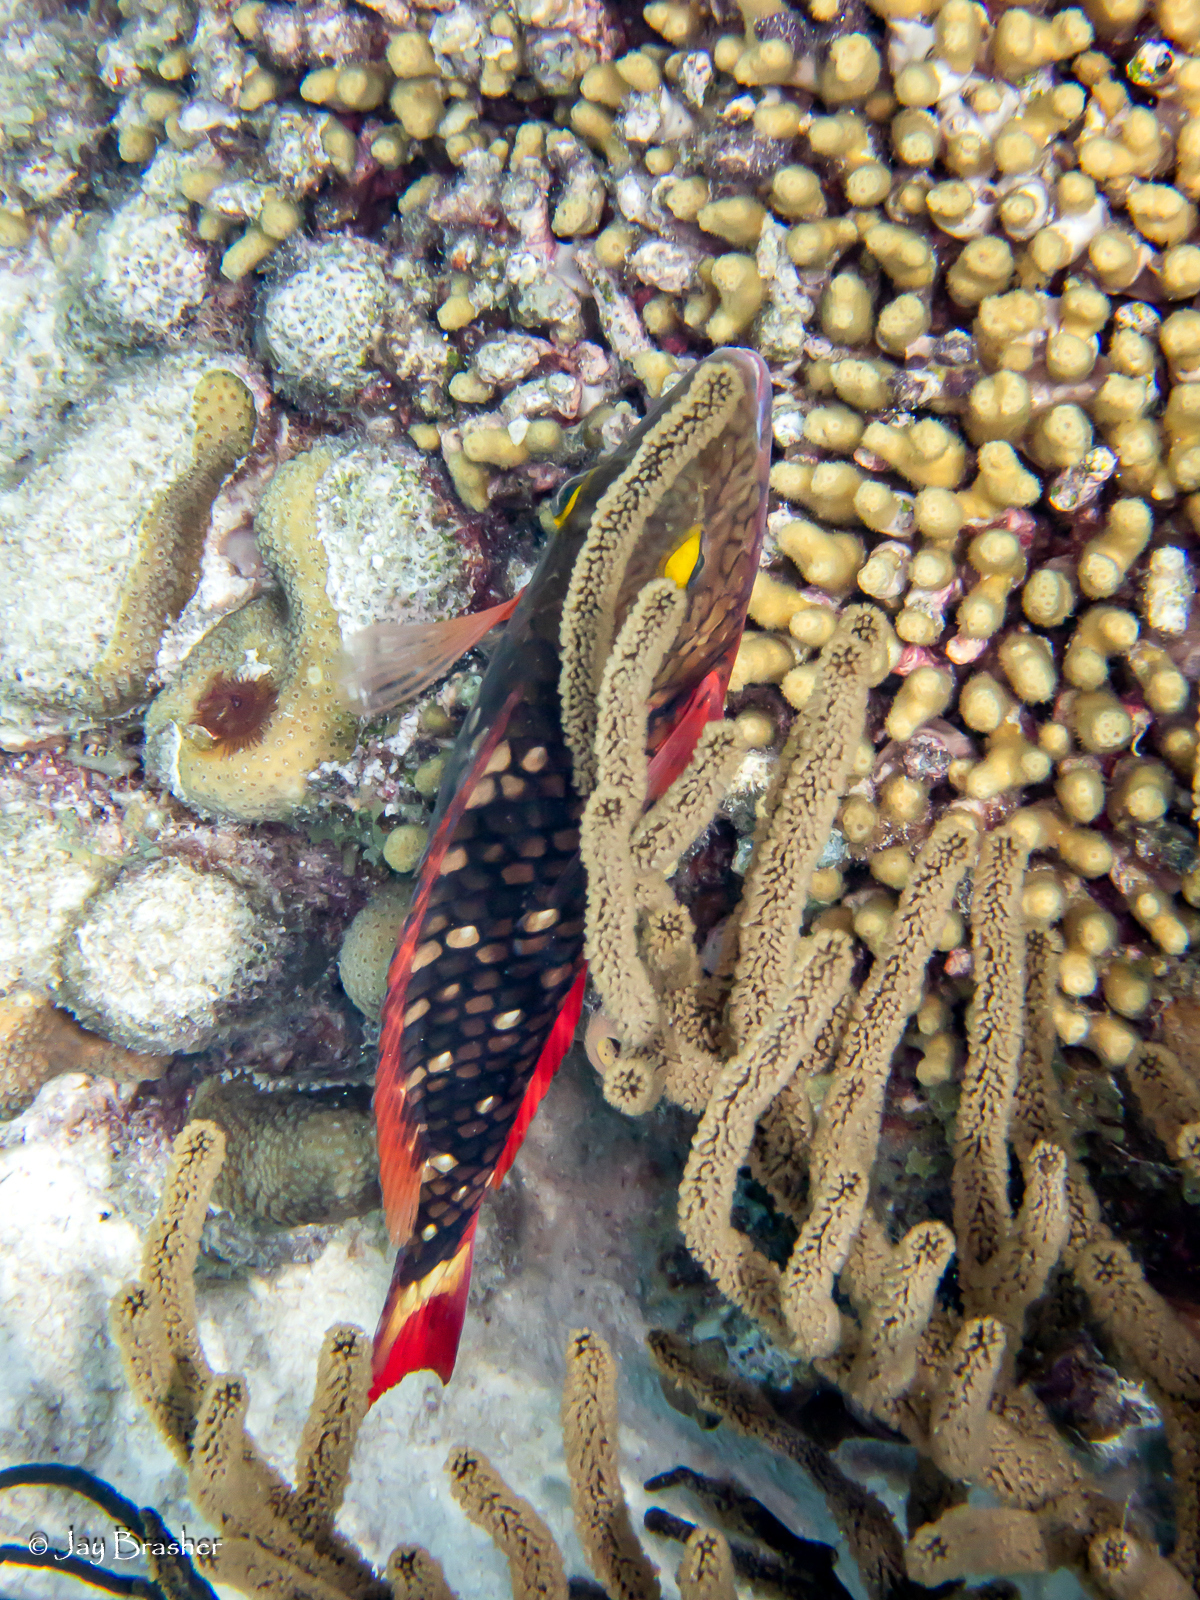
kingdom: Animalia
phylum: Cnidaria
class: Anthozoa
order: Scleractinia
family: Pocilloporidae
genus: Madracis
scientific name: Madracis auretenra
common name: Yellow pencil coral
